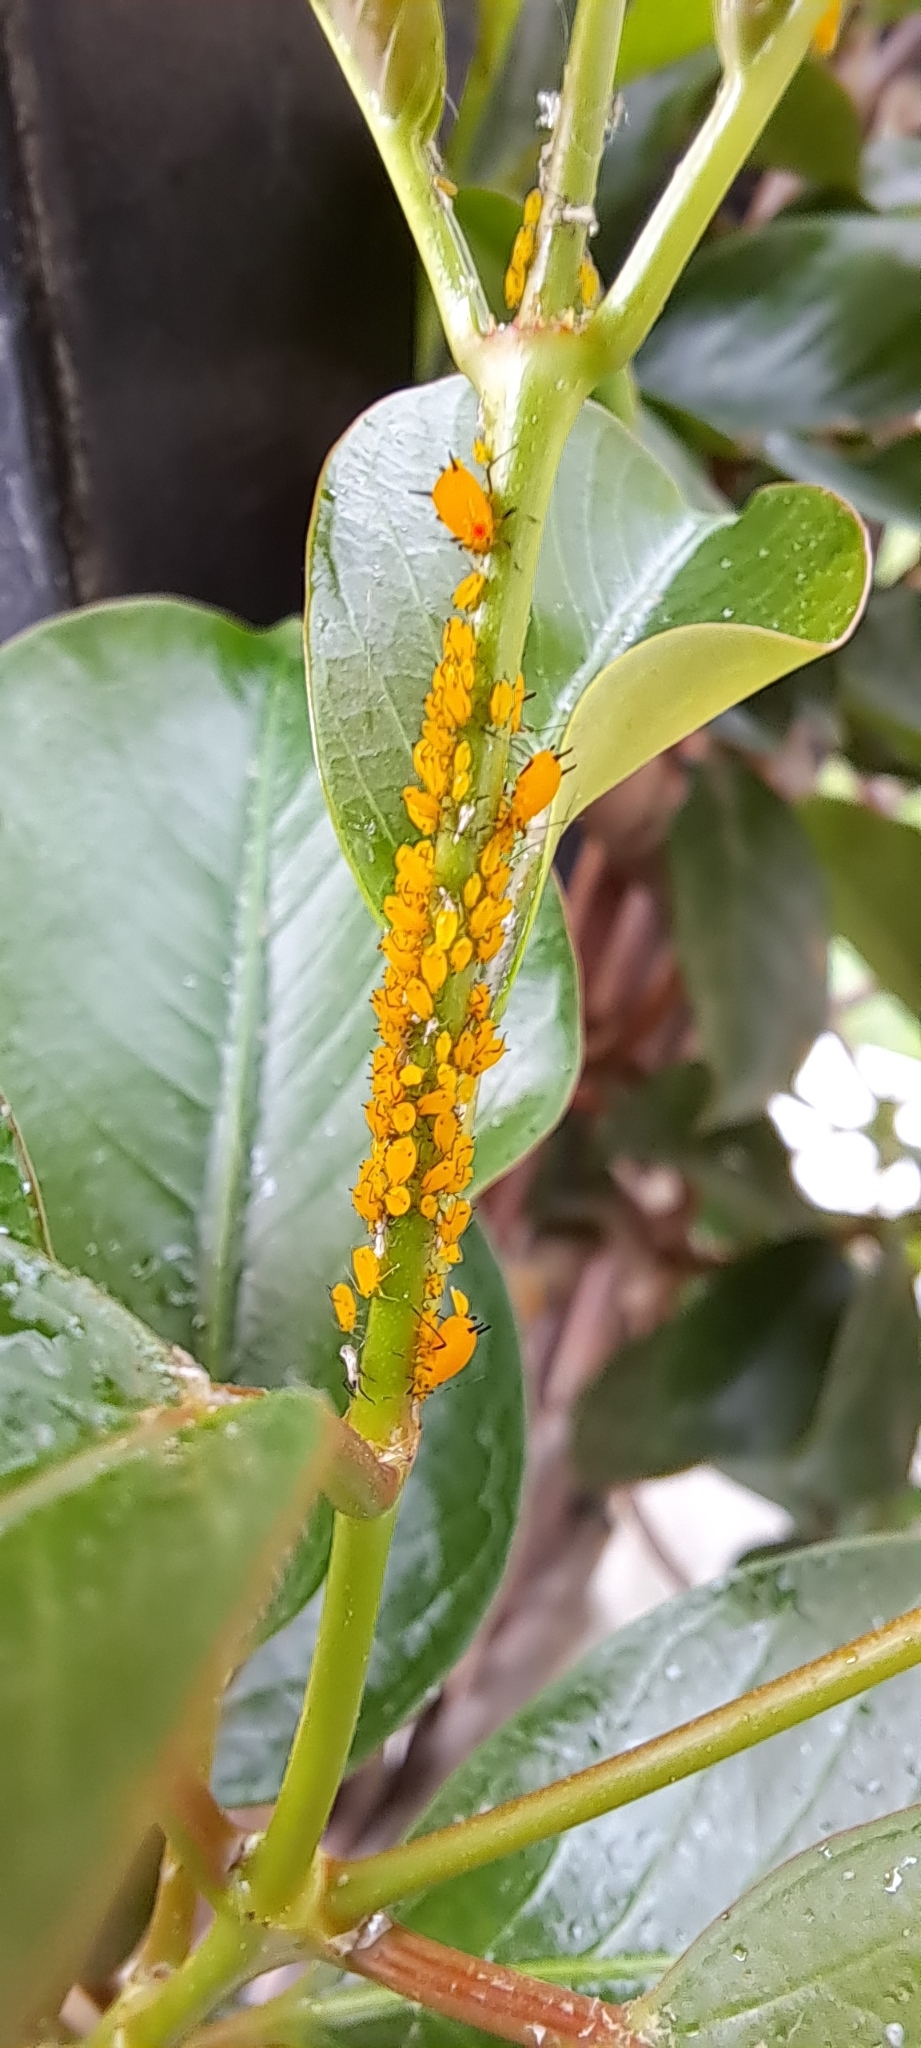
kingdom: Animalia
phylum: Arthropoda
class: Insecta
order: Hemiptera
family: Aphididae
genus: Aphis
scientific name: Aphis nerii
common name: Oleander aphid
